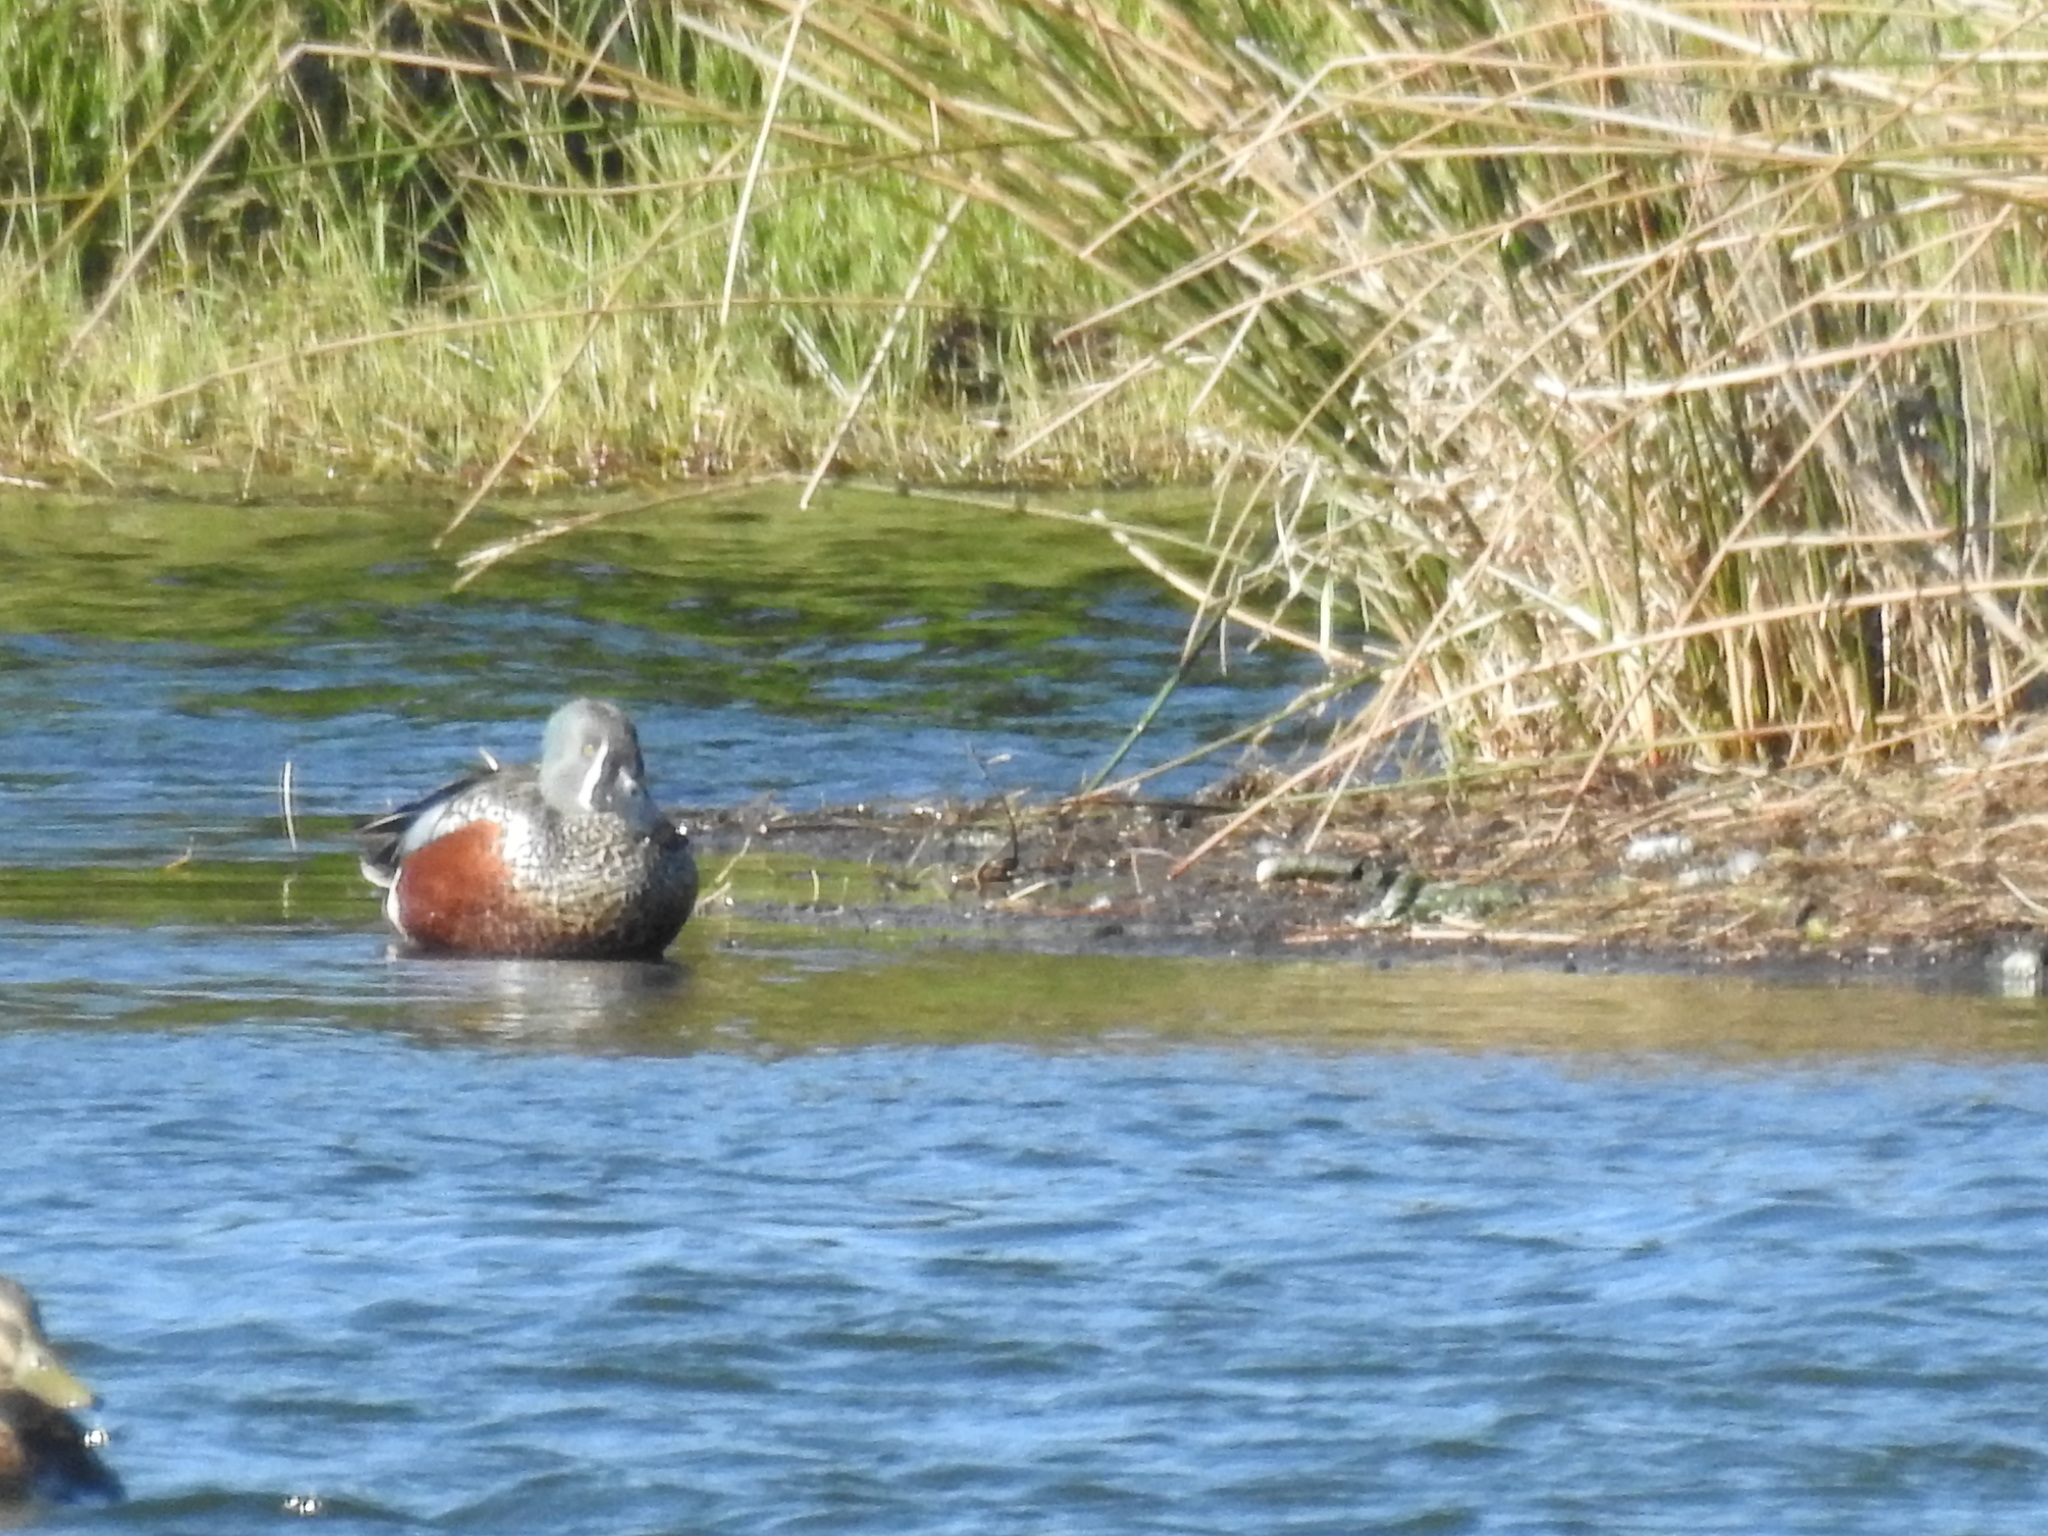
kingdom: Animalia
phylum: Chordata
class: Aves
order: Anseriformes
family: Anatidae
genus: Spatula
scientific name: Spatula rhynchotis
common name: Australian shoveler
